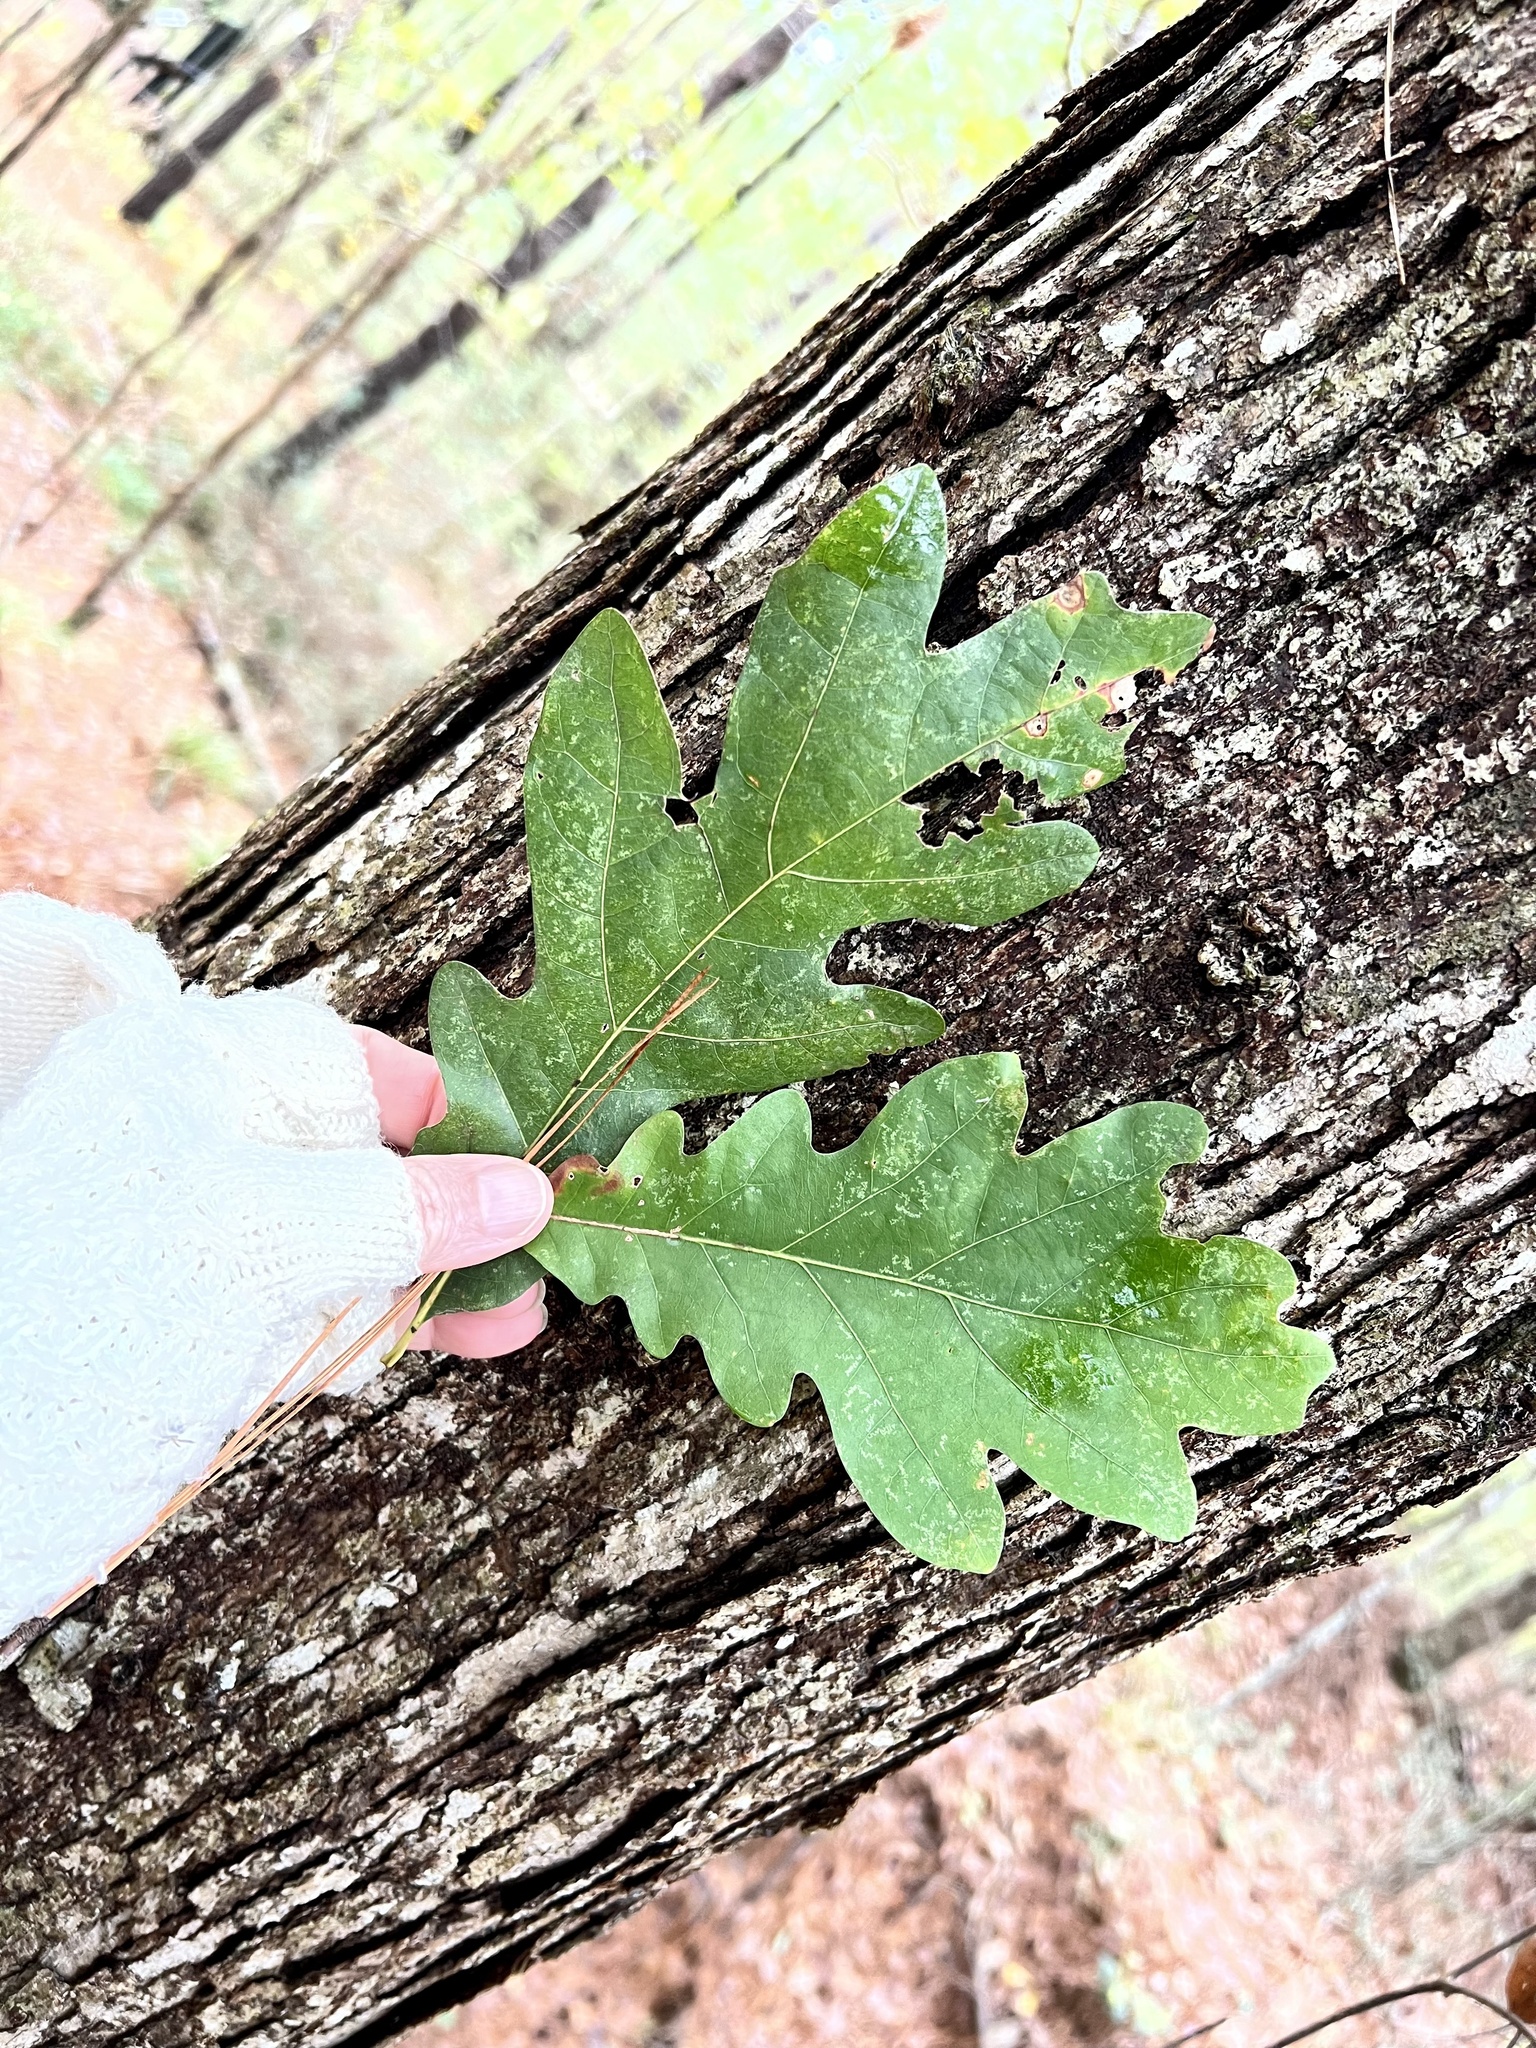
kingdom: Plantae
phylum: Tracheophyta
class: Magnoliopsida
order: Fagales
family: Fagaceae
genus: Quercus
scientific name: Quercus alba
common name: White oak
